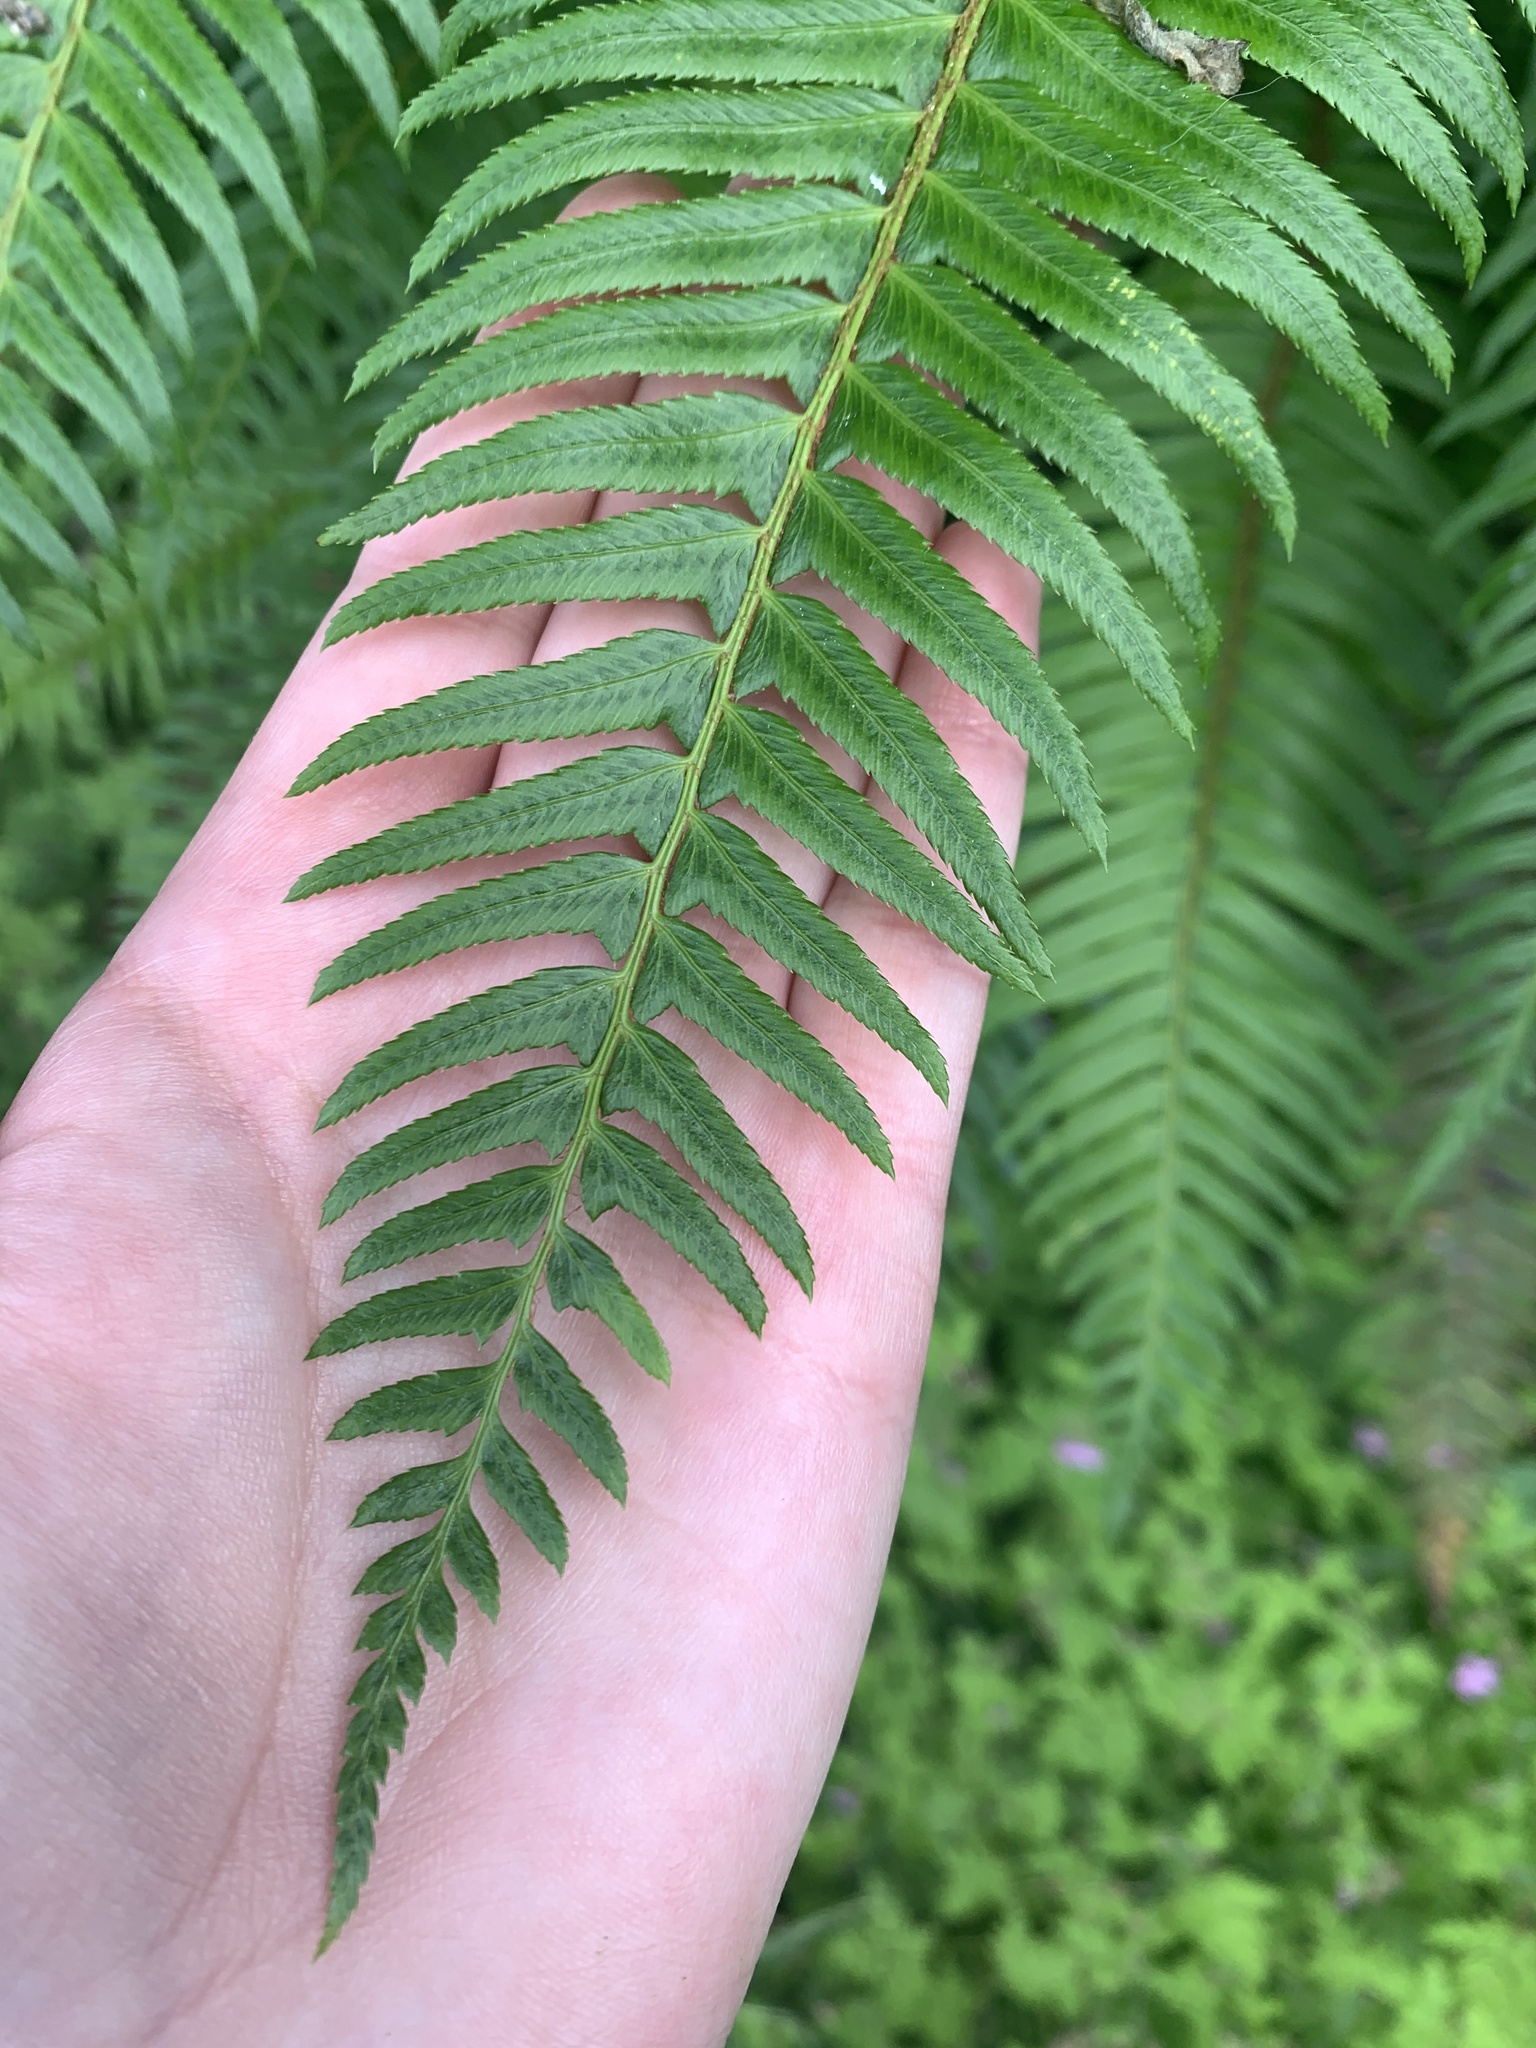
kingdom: Plantae
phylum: Tracheophyta
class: Polypodiopsida
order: Polypodiales
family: Dryopteridaceae
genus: Polystichum
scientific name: Polystichum munitum
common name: Western sword-fern
